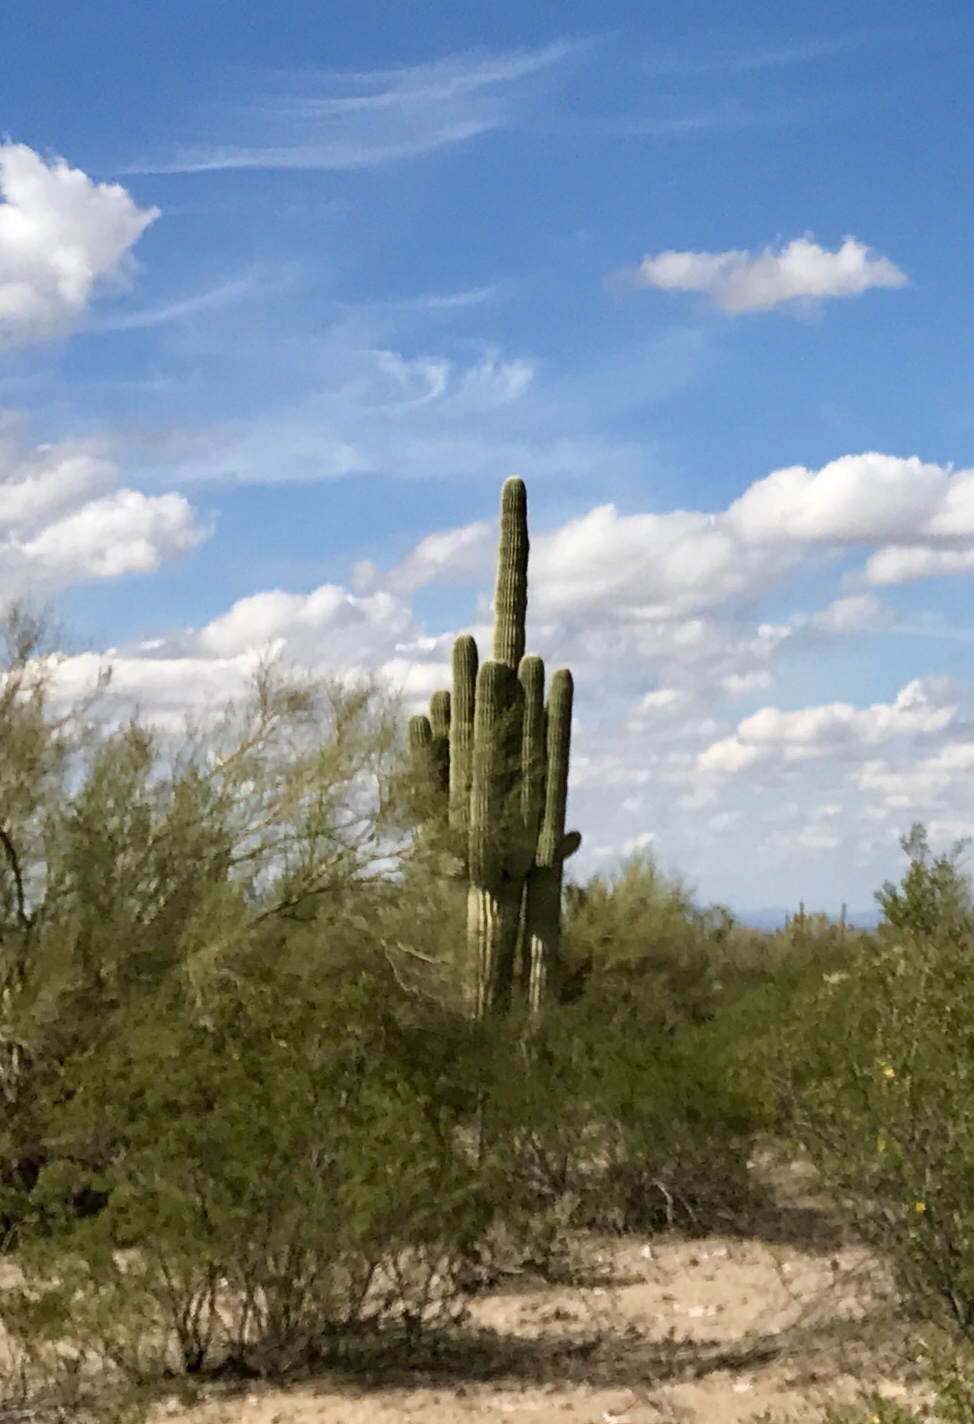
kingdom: Plantae
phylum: Tracheophyta
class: Magnoliopsida
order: Caryophyllales
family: Cactaceae
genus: Carnegiea
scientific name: Carnegiea gigantea
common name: Saguaro
